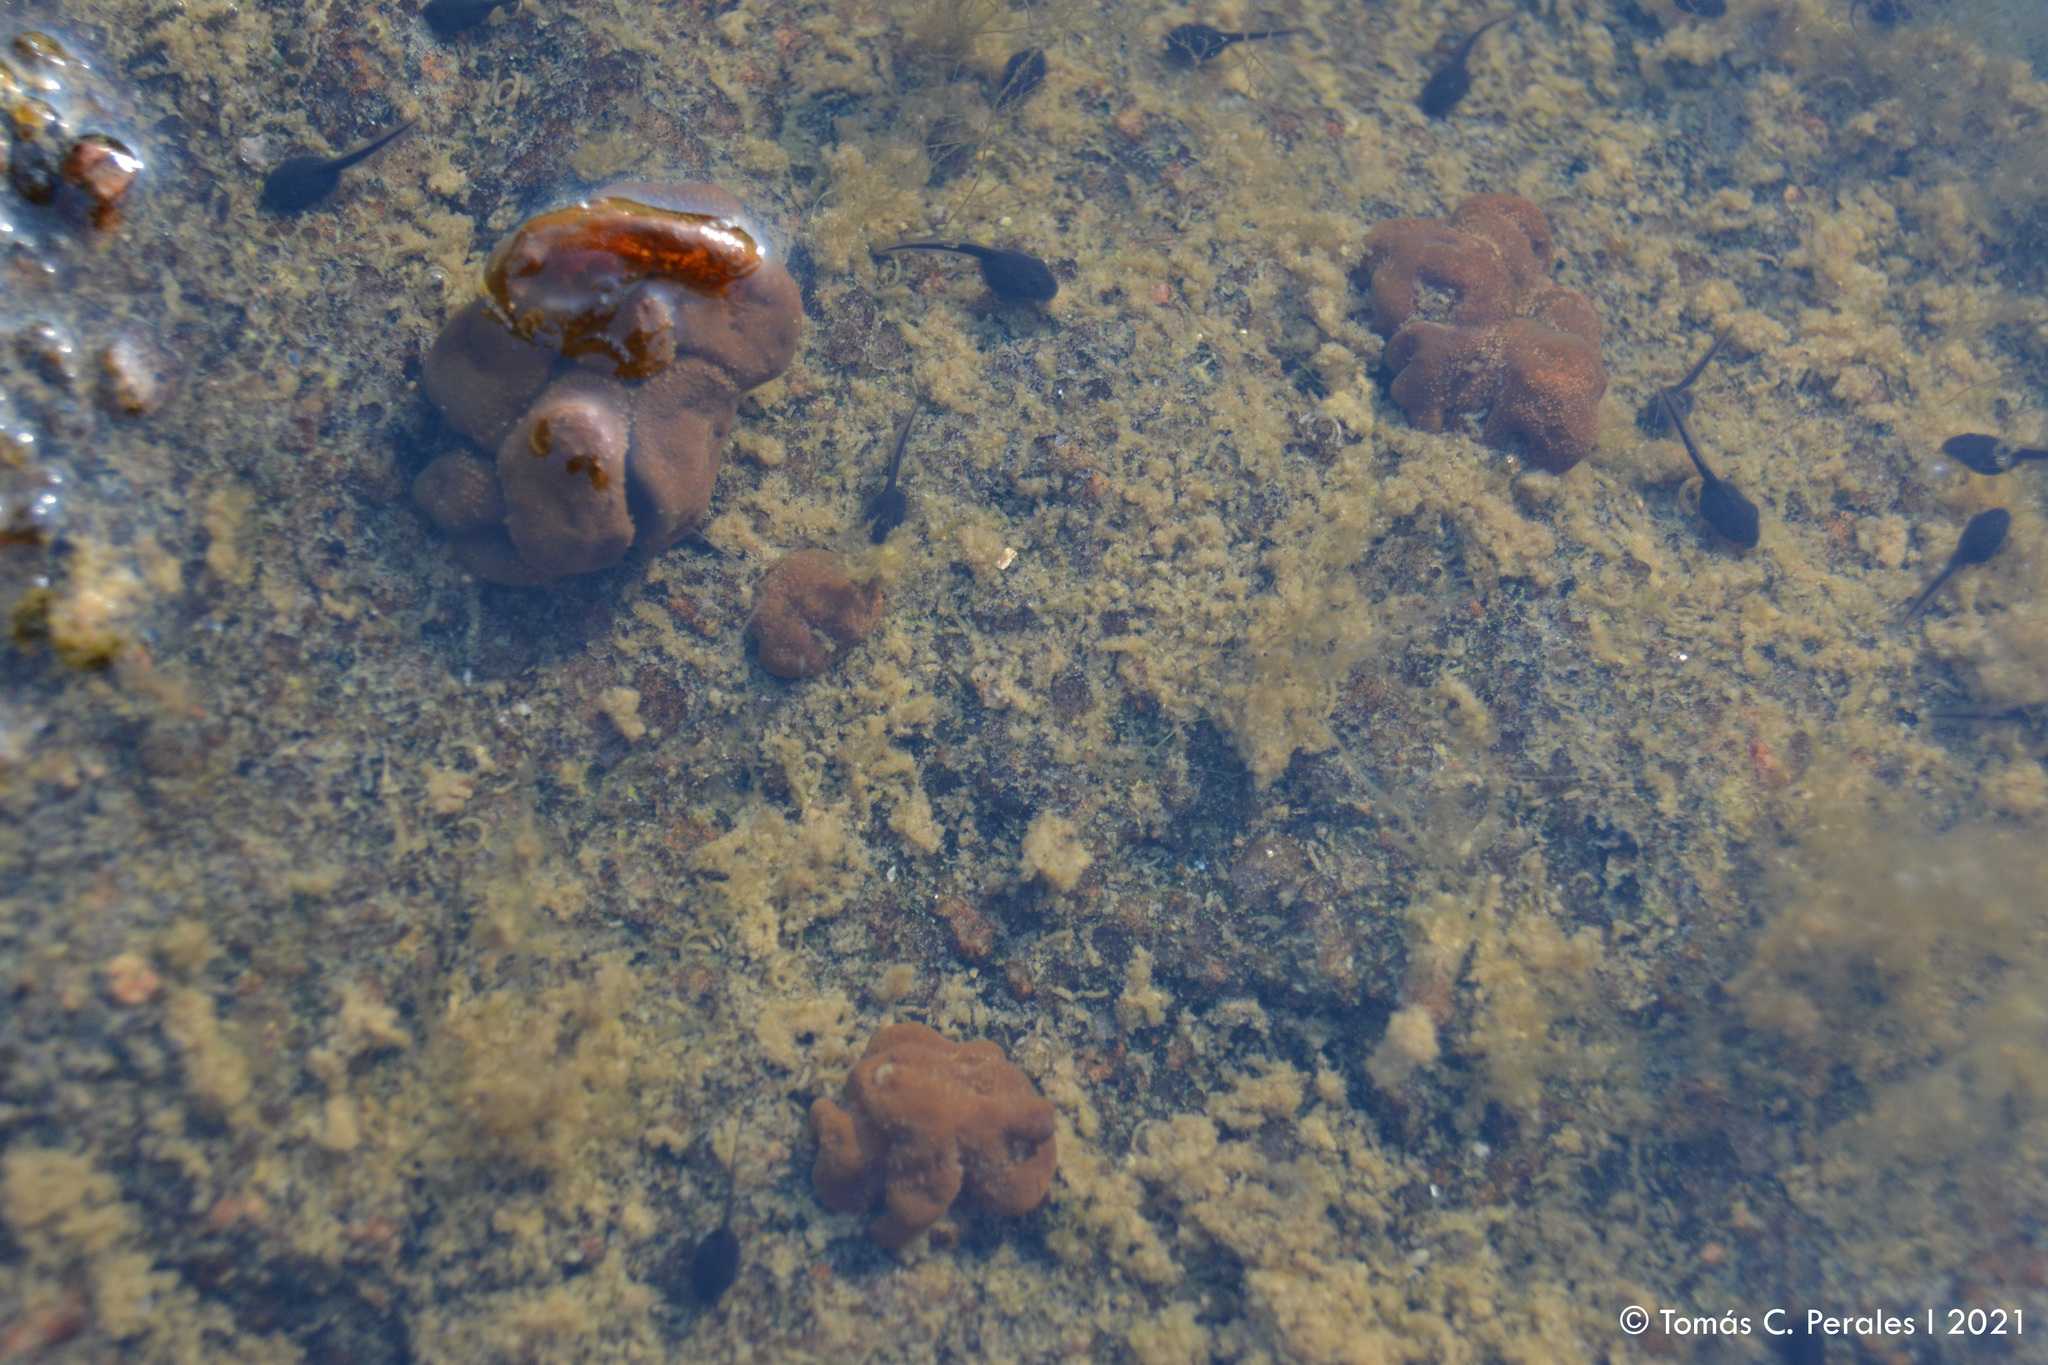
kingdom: Animalia
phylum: Chordata
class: Amphibia
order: Anura
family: Bufonidae
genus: Rhinella
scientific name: Rhinella arenarum
